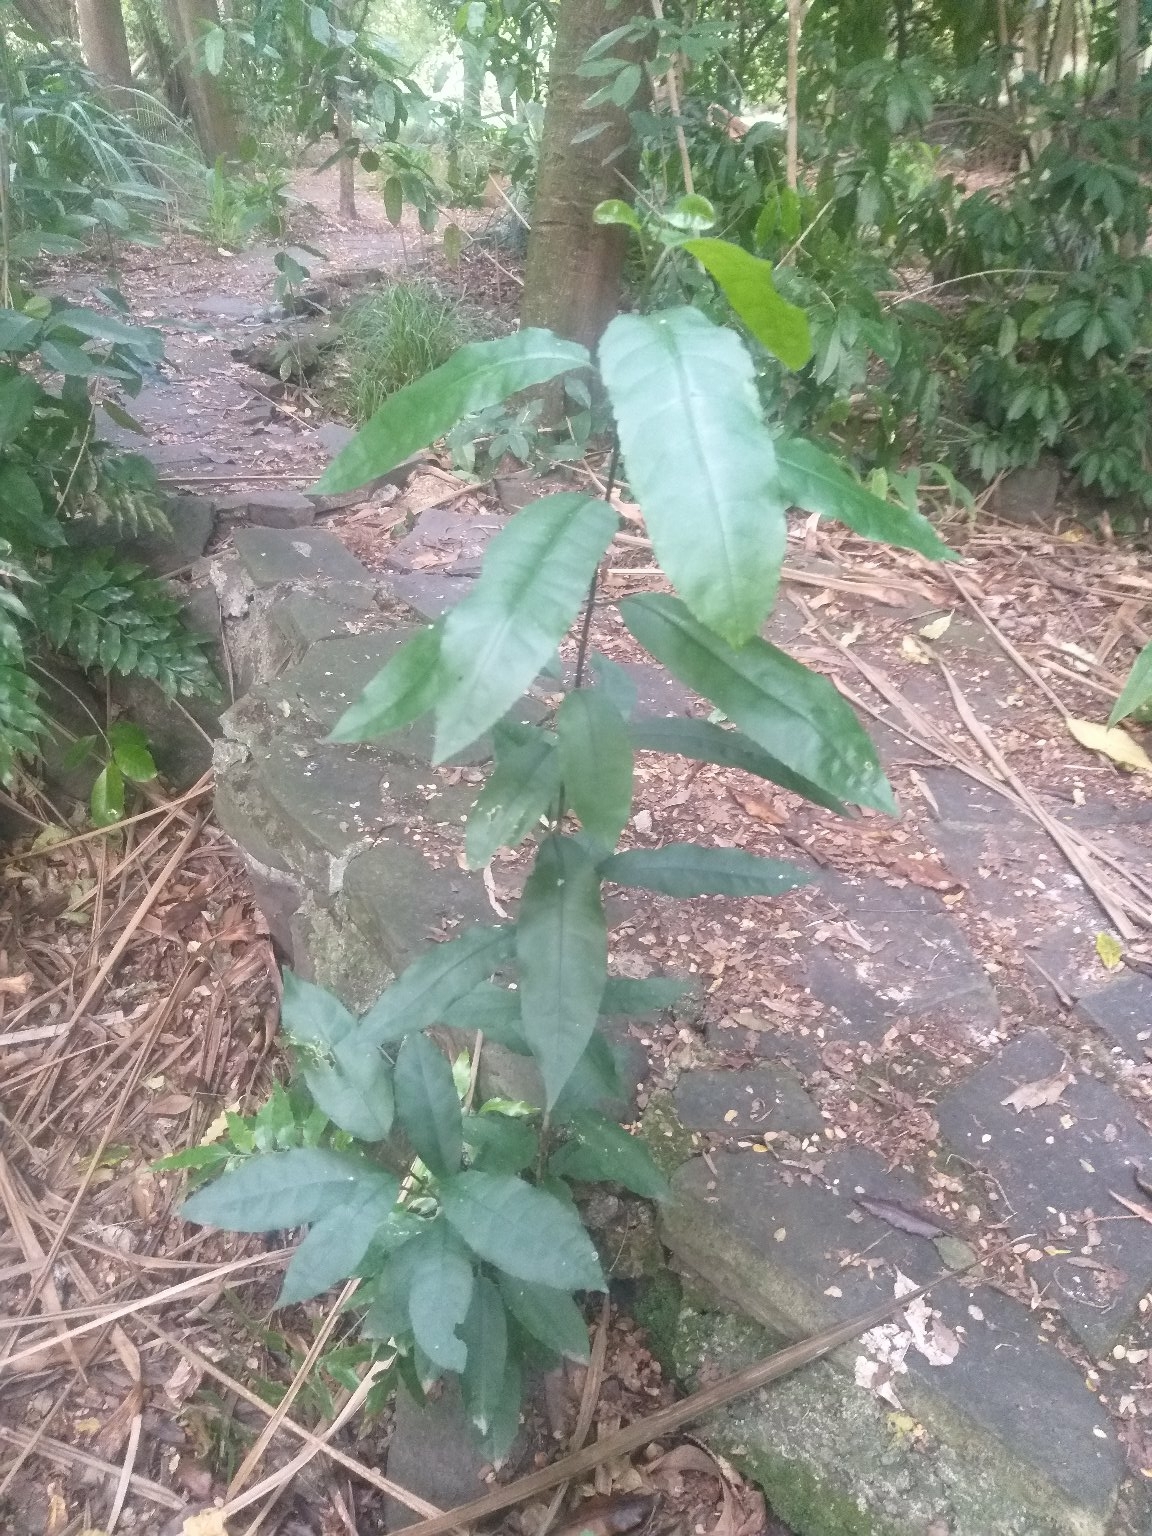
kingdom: Plantae
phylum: Tracheophyta
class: Magnoliopsida
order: Malpighiales
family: Violaceae
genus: Melicytus
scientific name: Melicytus ramiflorus
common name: Mahoe
